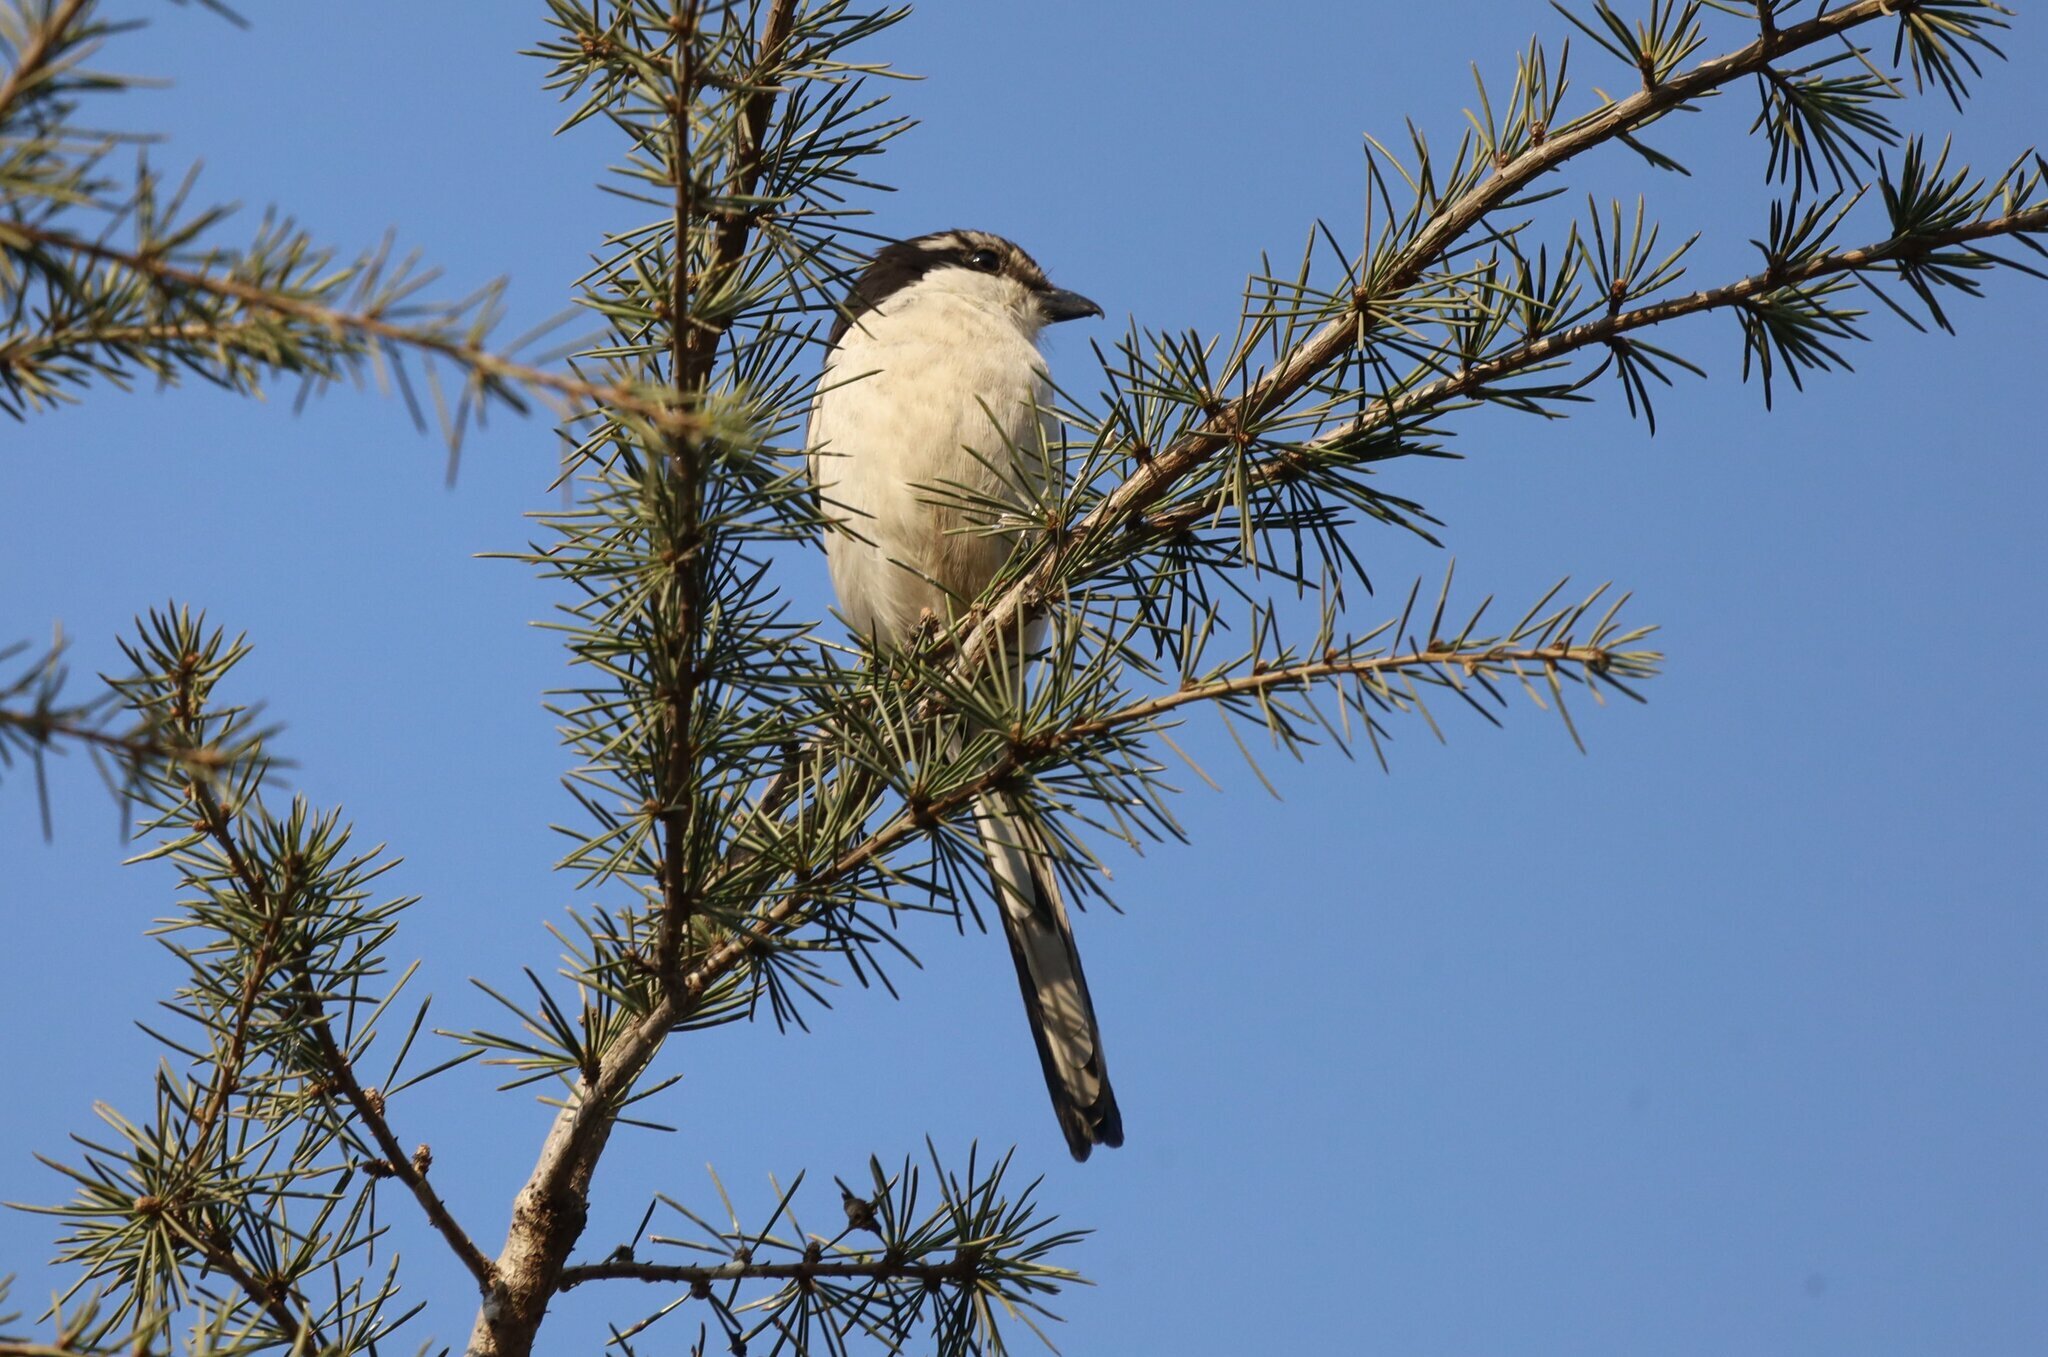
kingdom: Animalia
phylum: Chordata
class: Aves
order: Passeriformes
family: Laniidae
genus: Lanius
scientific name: Lanius collaris
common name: Southern fiscal
